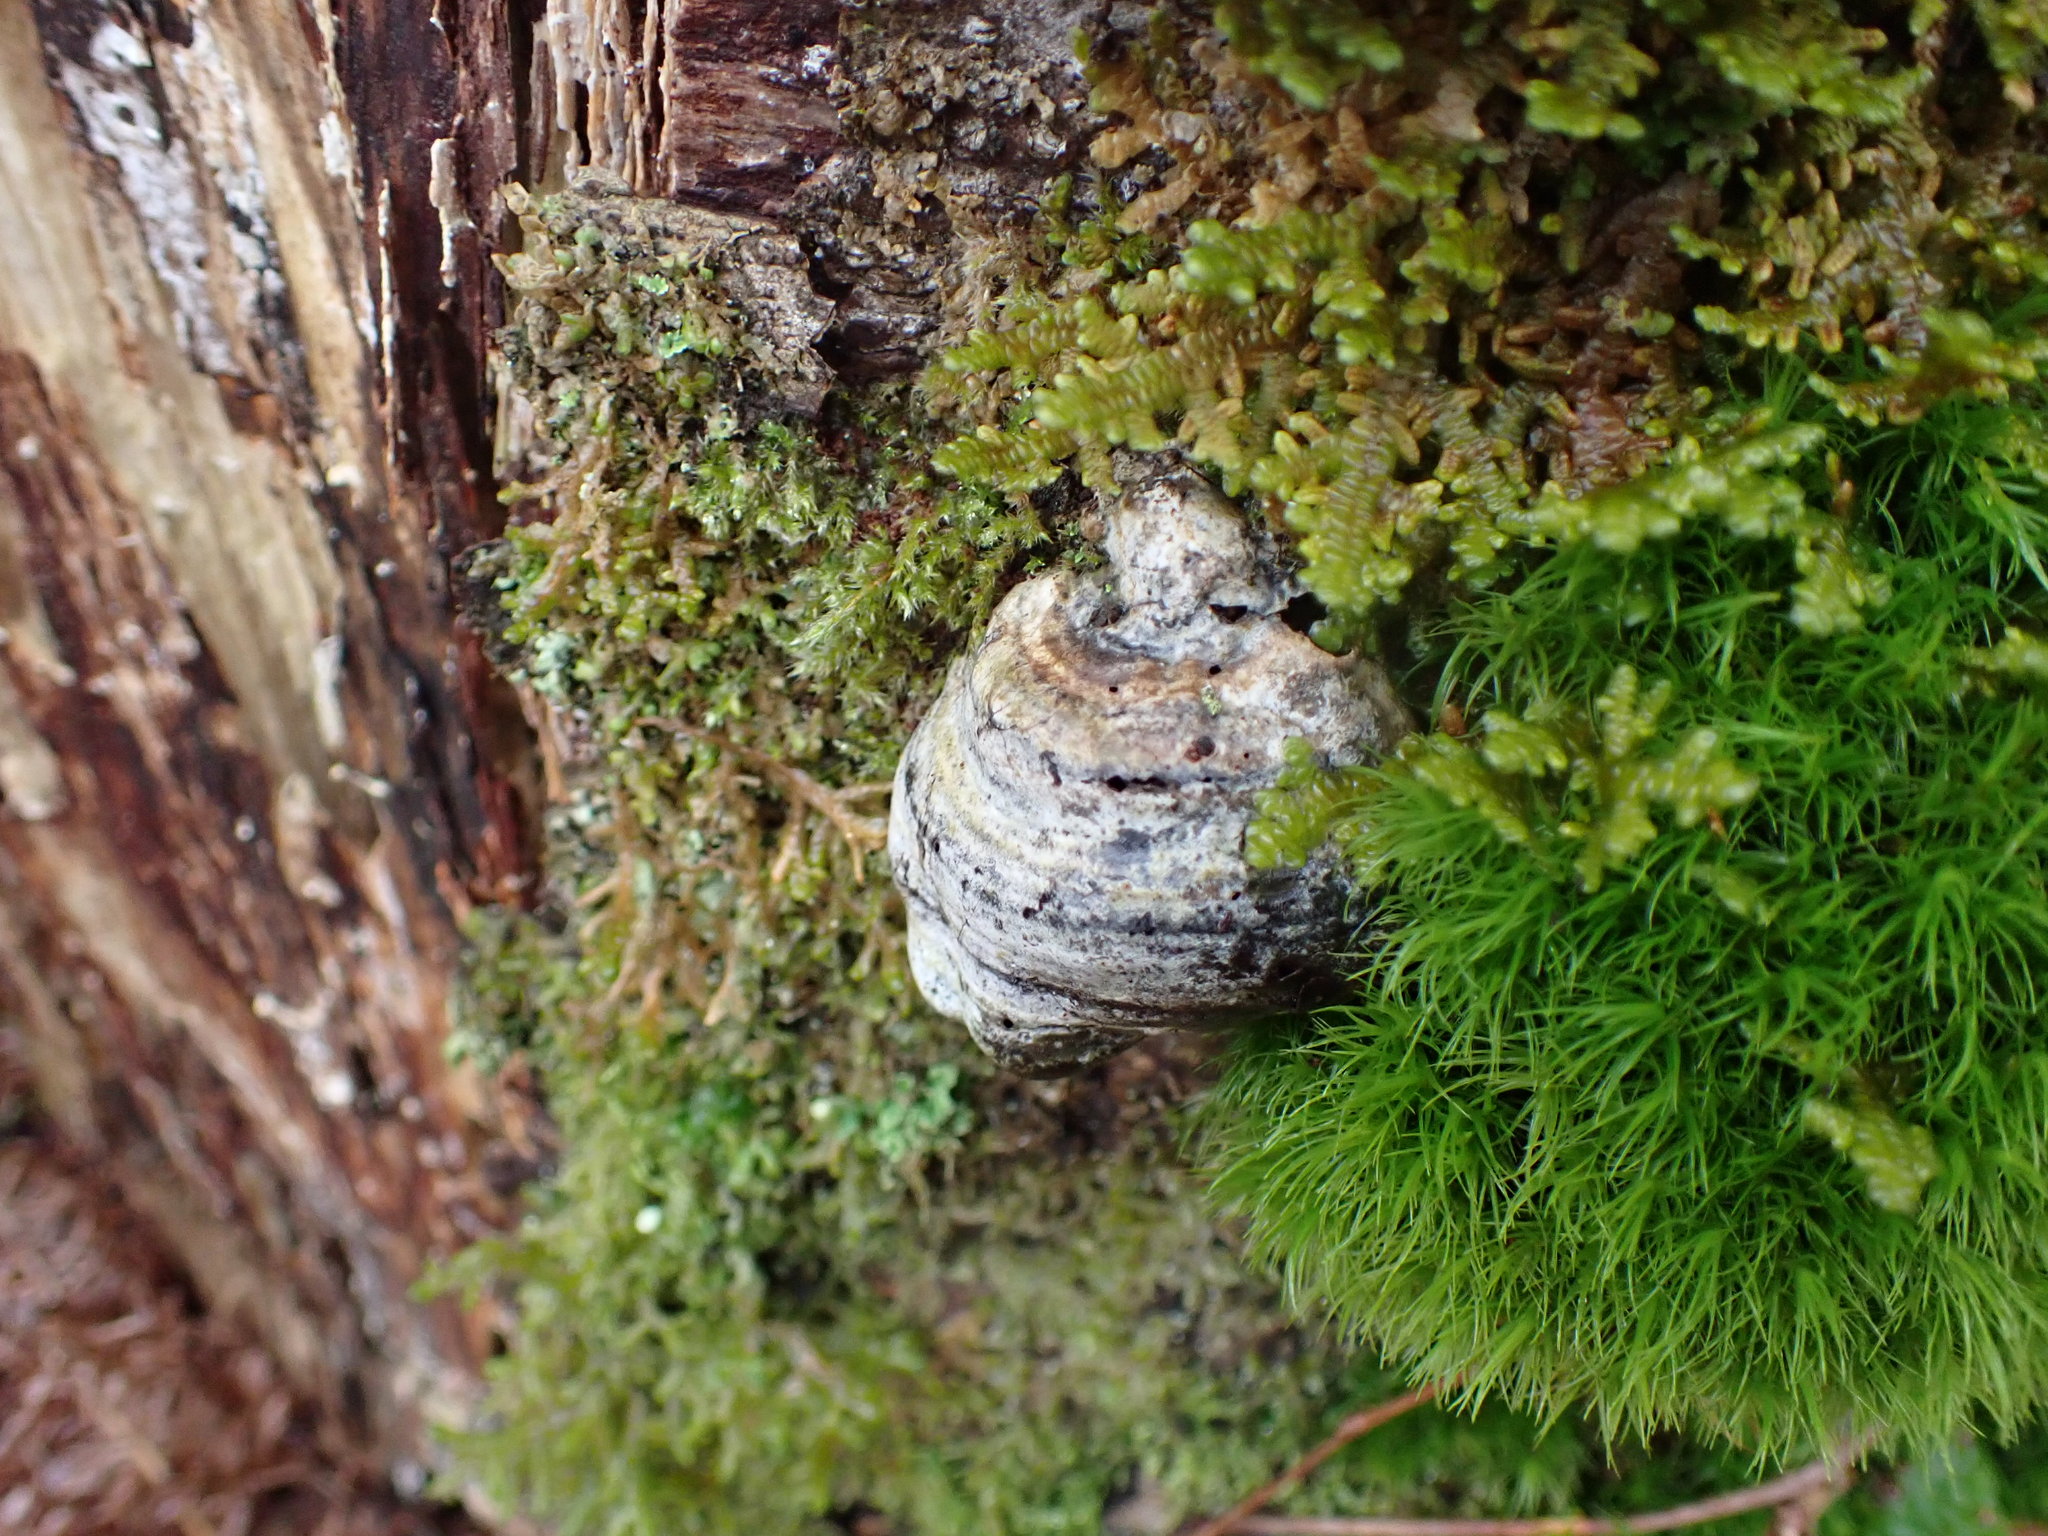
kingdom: Fungi
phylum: Basidiomycota
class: Agaricomycetes
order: Polyporales
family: Polyporaceae
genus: Fomes
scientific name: Fomes fomentarius
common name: Hoof fungus
